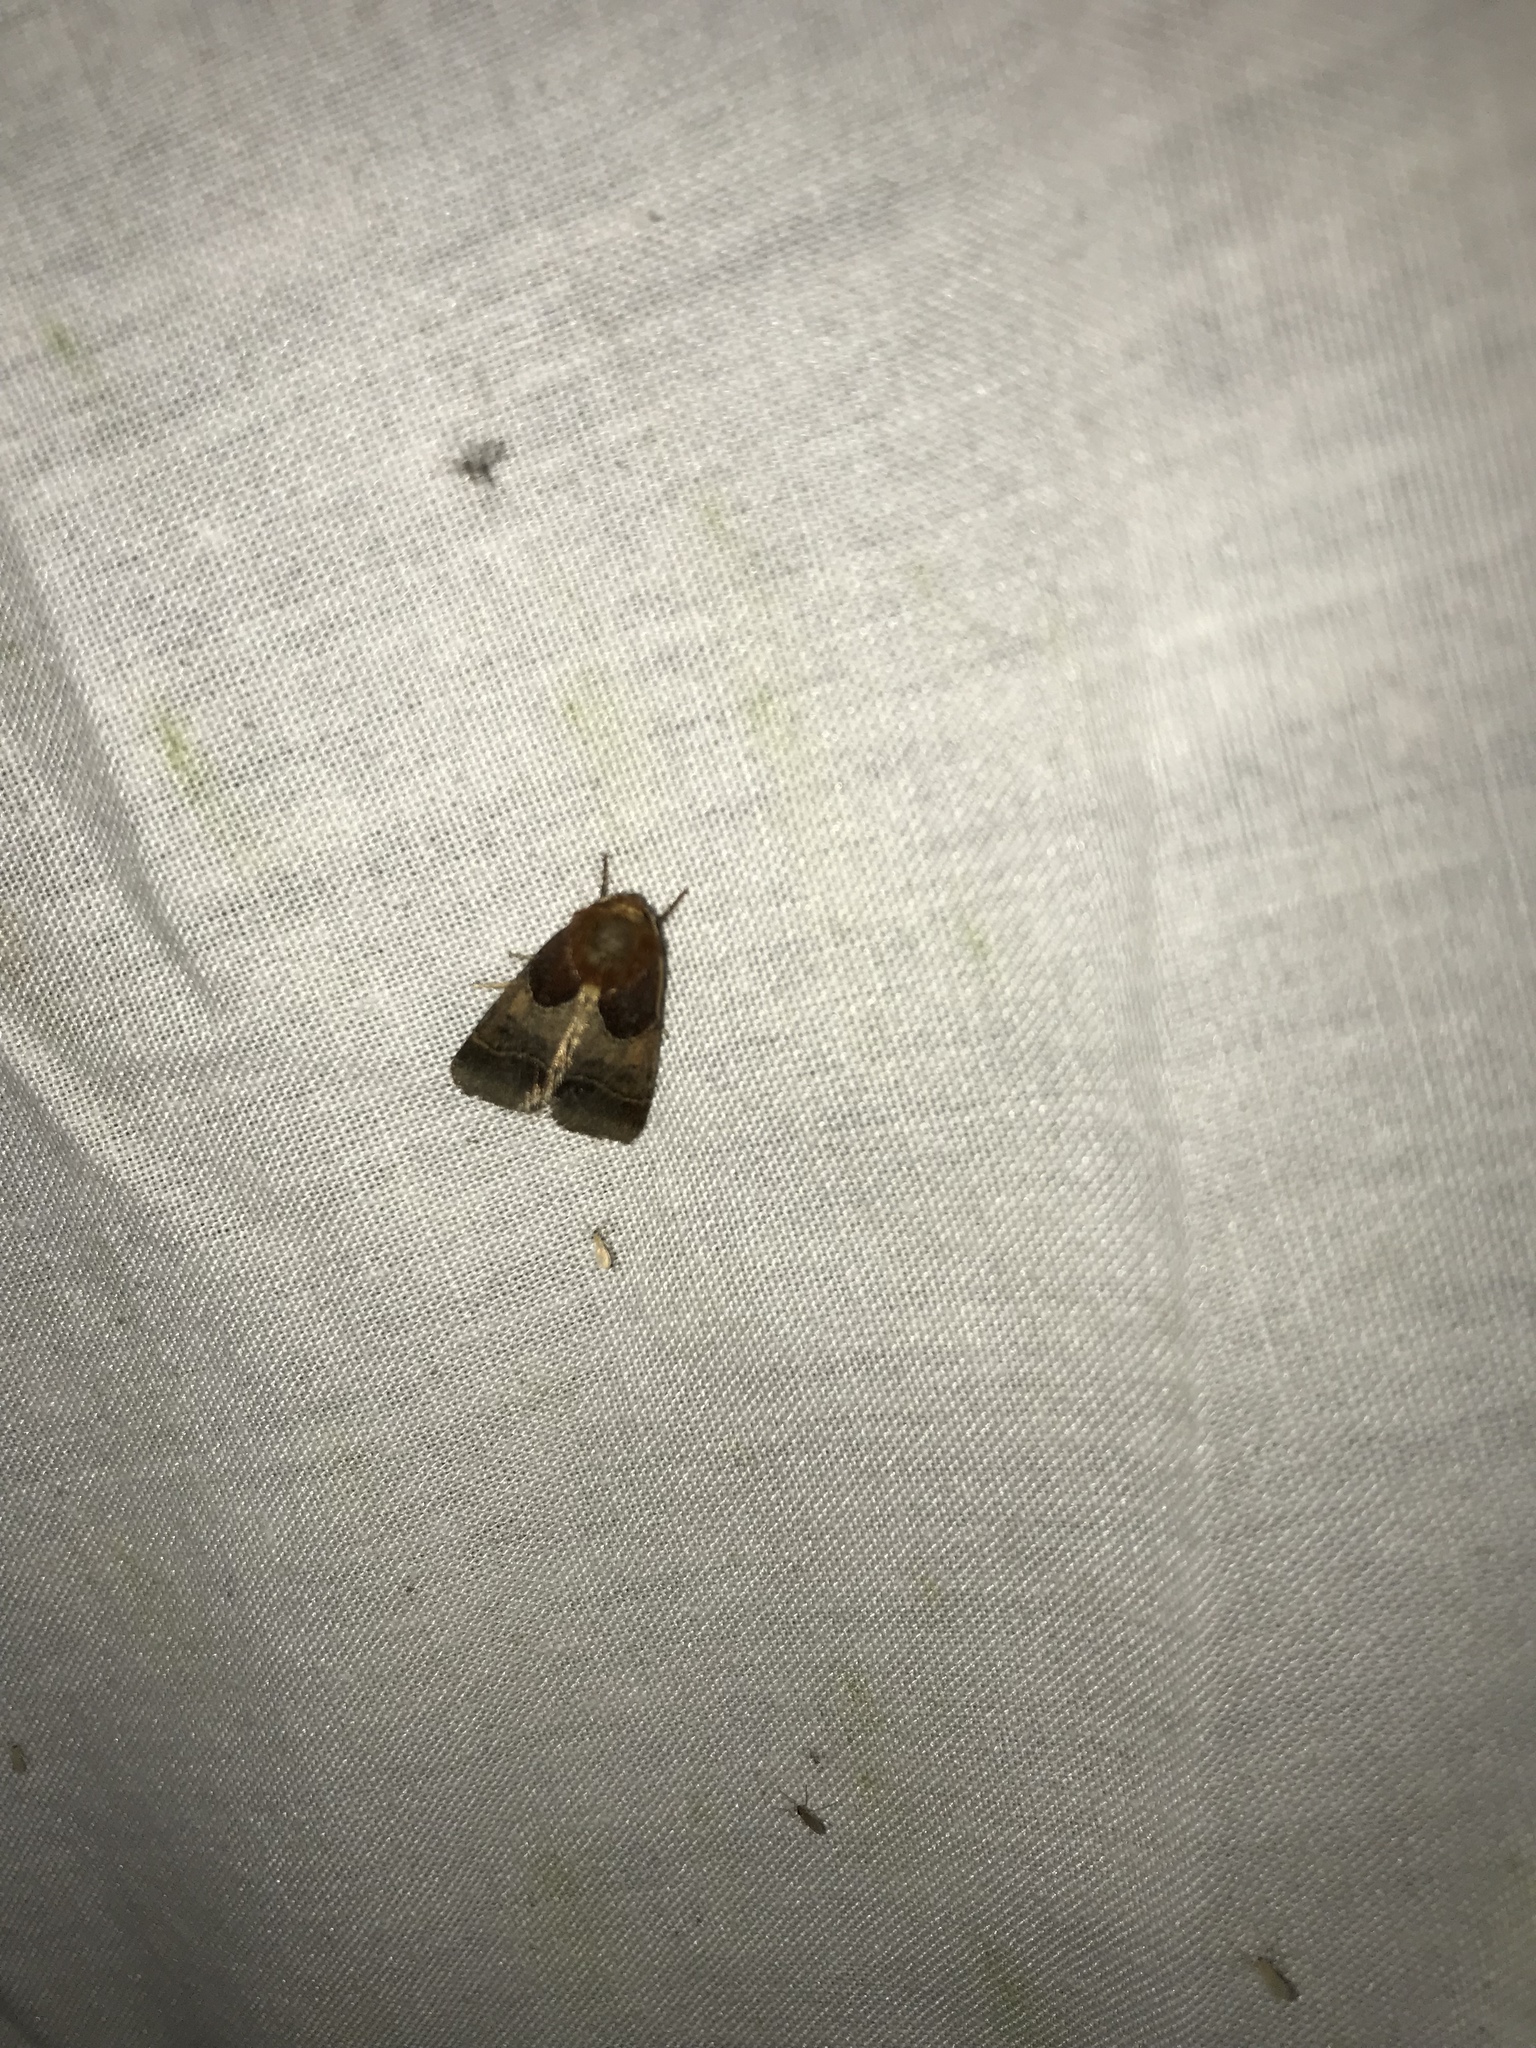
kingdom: Animalia
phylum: Arthropoda
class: Insecta
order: Lepidoptera
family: Noctuidae
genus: Schinia
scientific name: Schinia arcigera
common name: Arcigera flower moth
